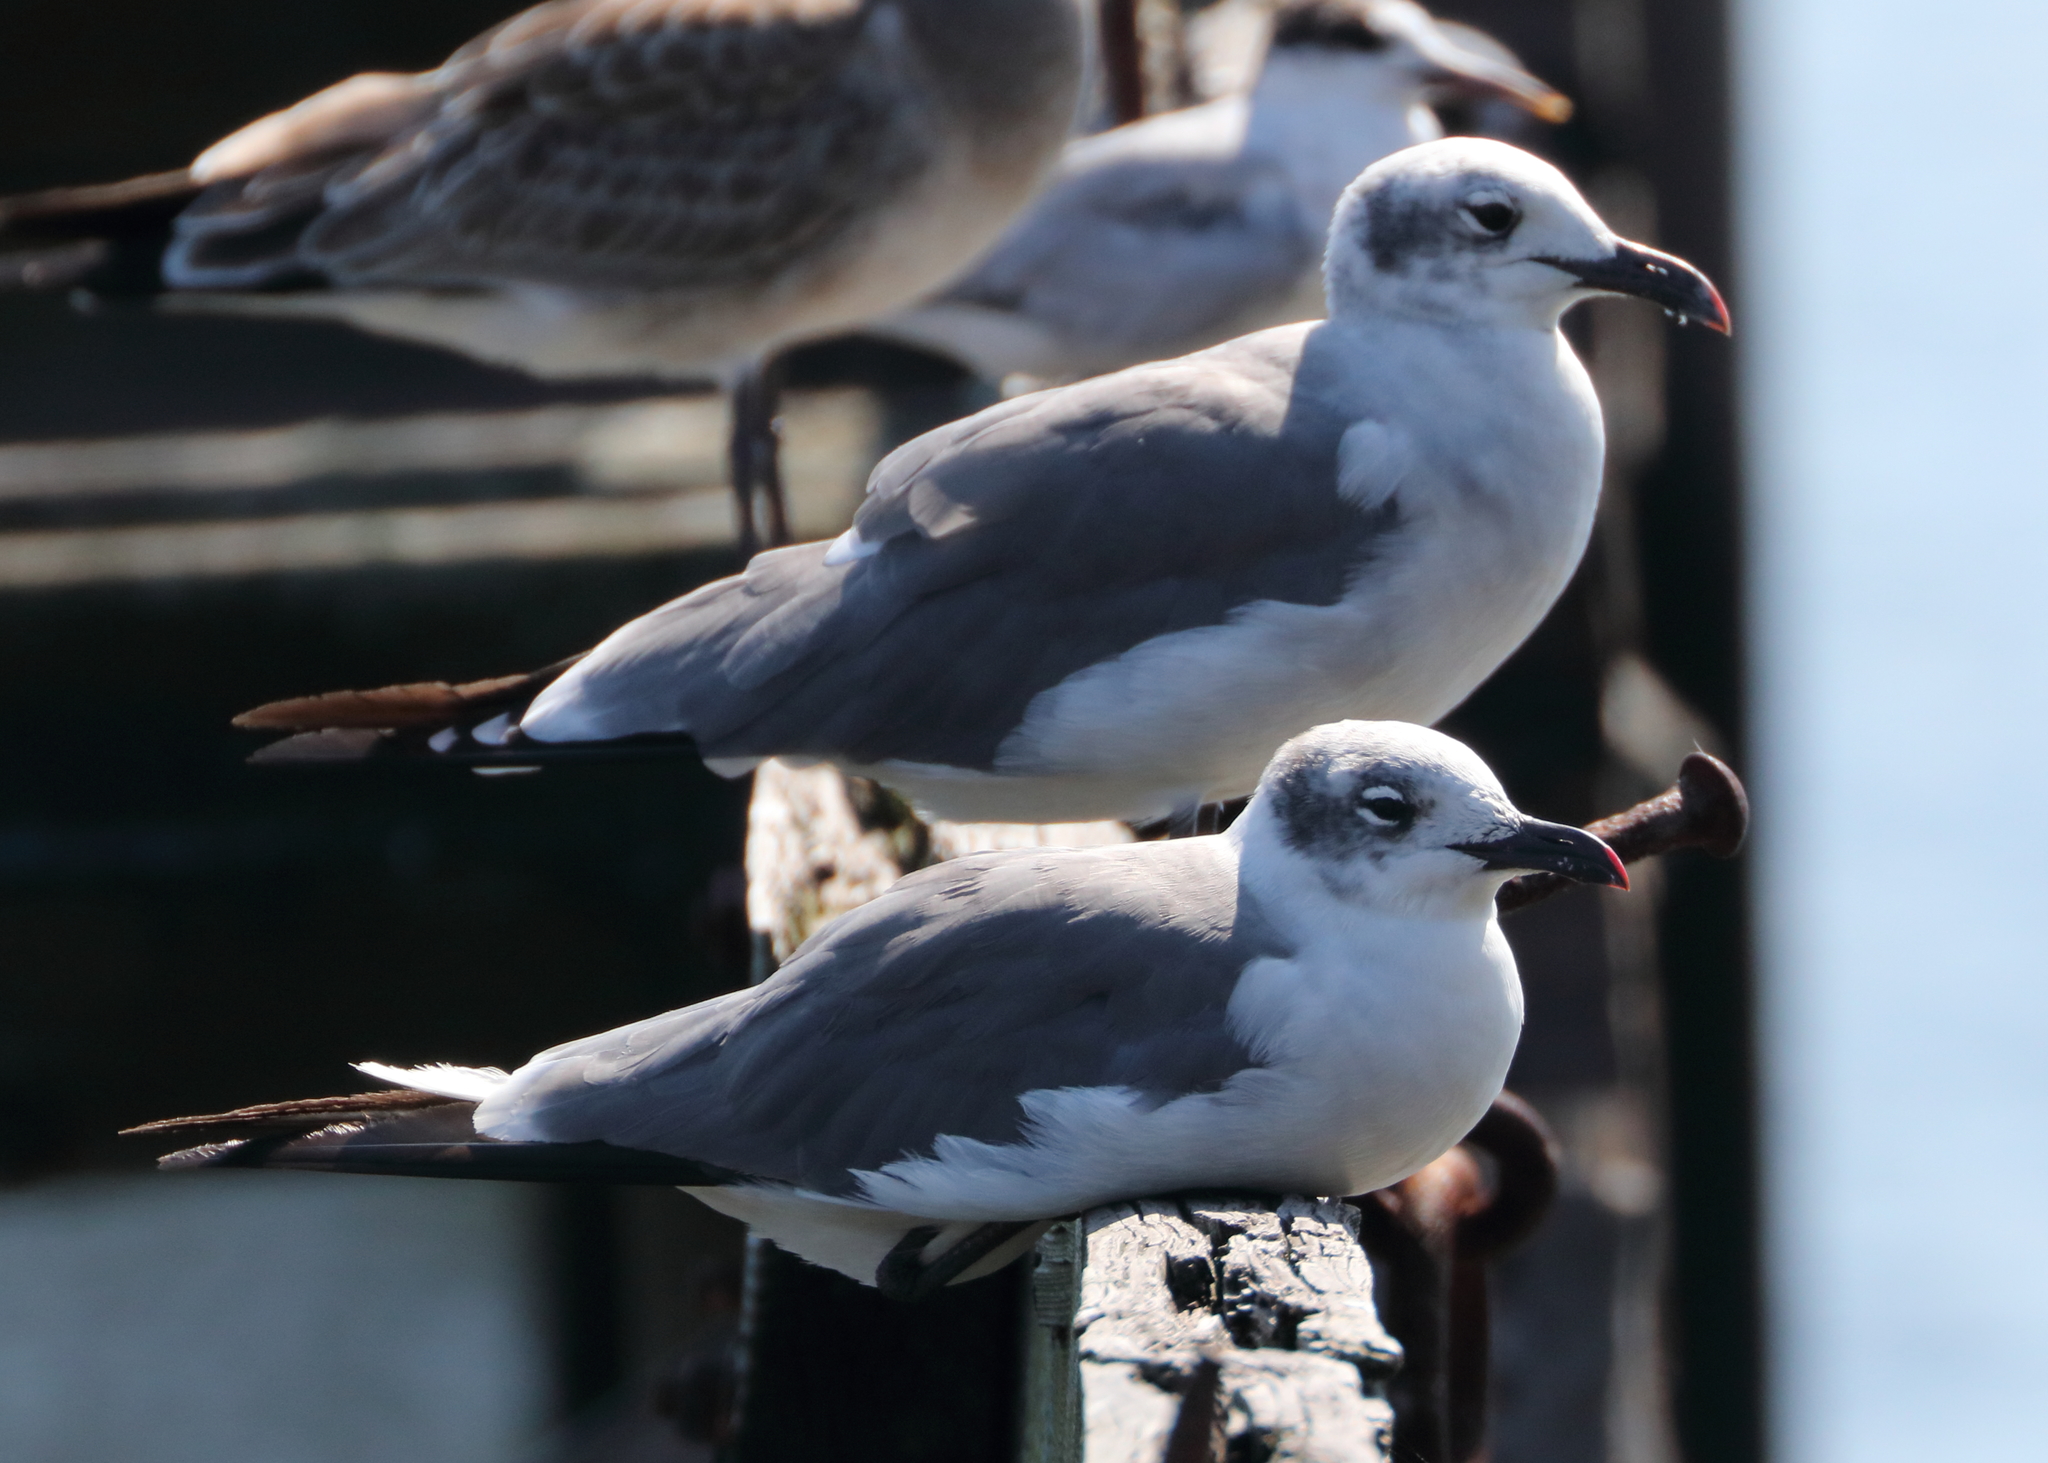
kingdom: Animalia
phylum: Chordata
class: Aves
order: Charadriiformes
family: Laridae
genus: Leucophaeus
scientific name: Leucophaeus atricilla
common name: Laughing gull
